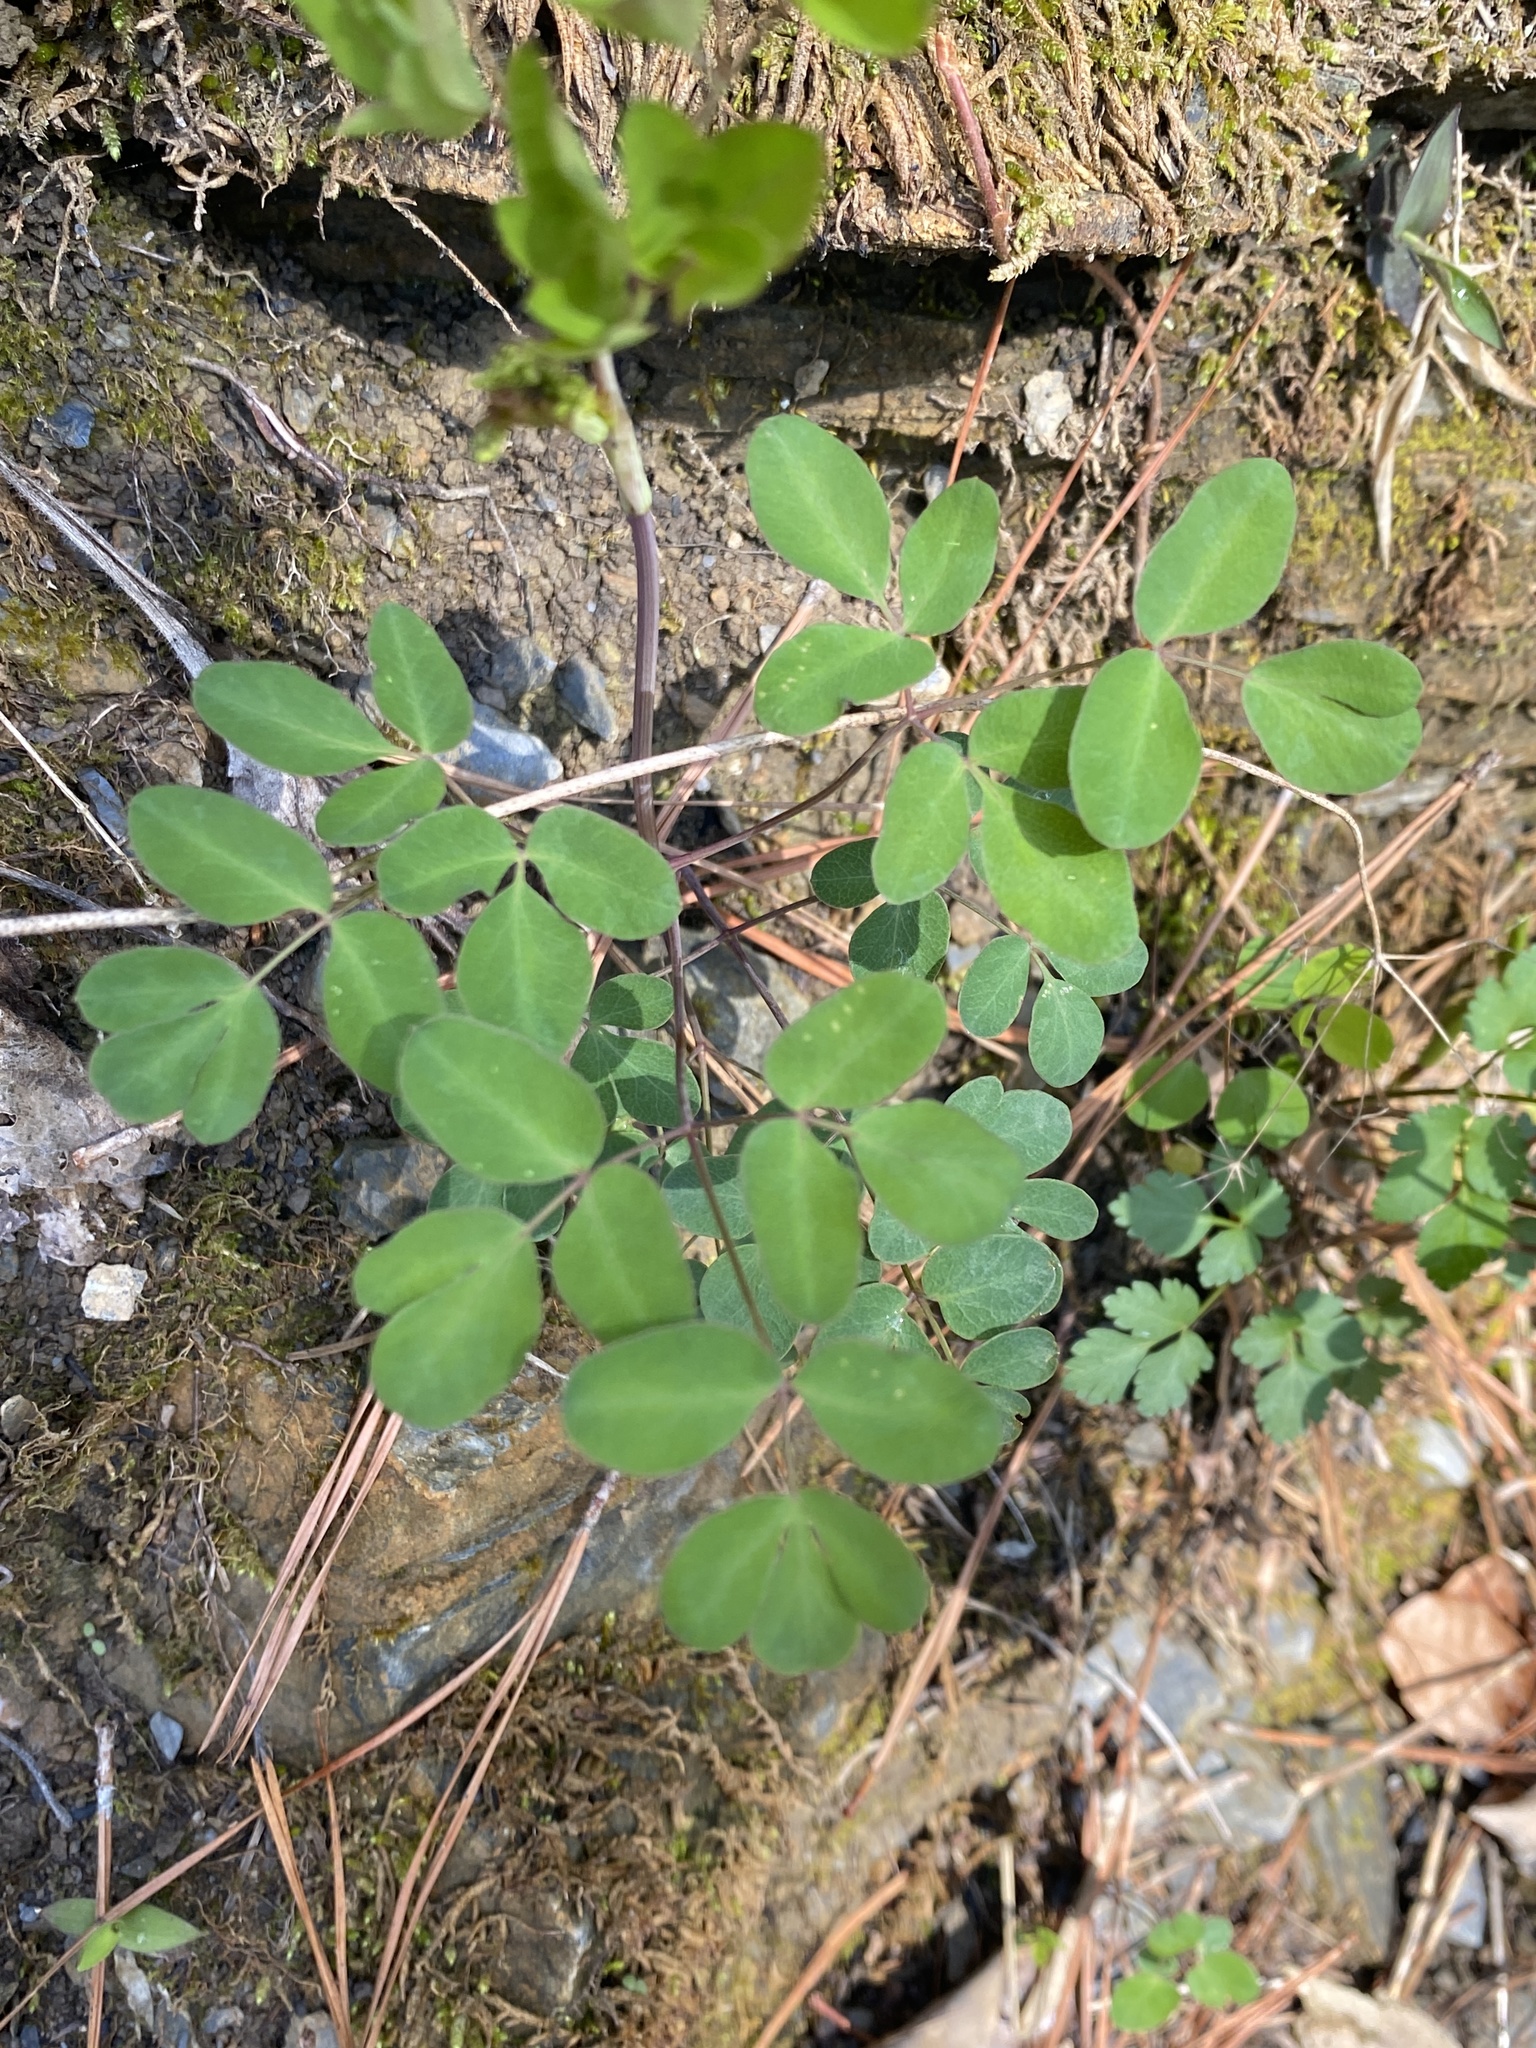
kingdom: Plantae
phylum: Tracheophyta
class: Magnoliopsida
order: Apiales
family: Apiaceae
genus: Taenidia
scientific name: Taenidia integerrima
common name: Golden alexander
